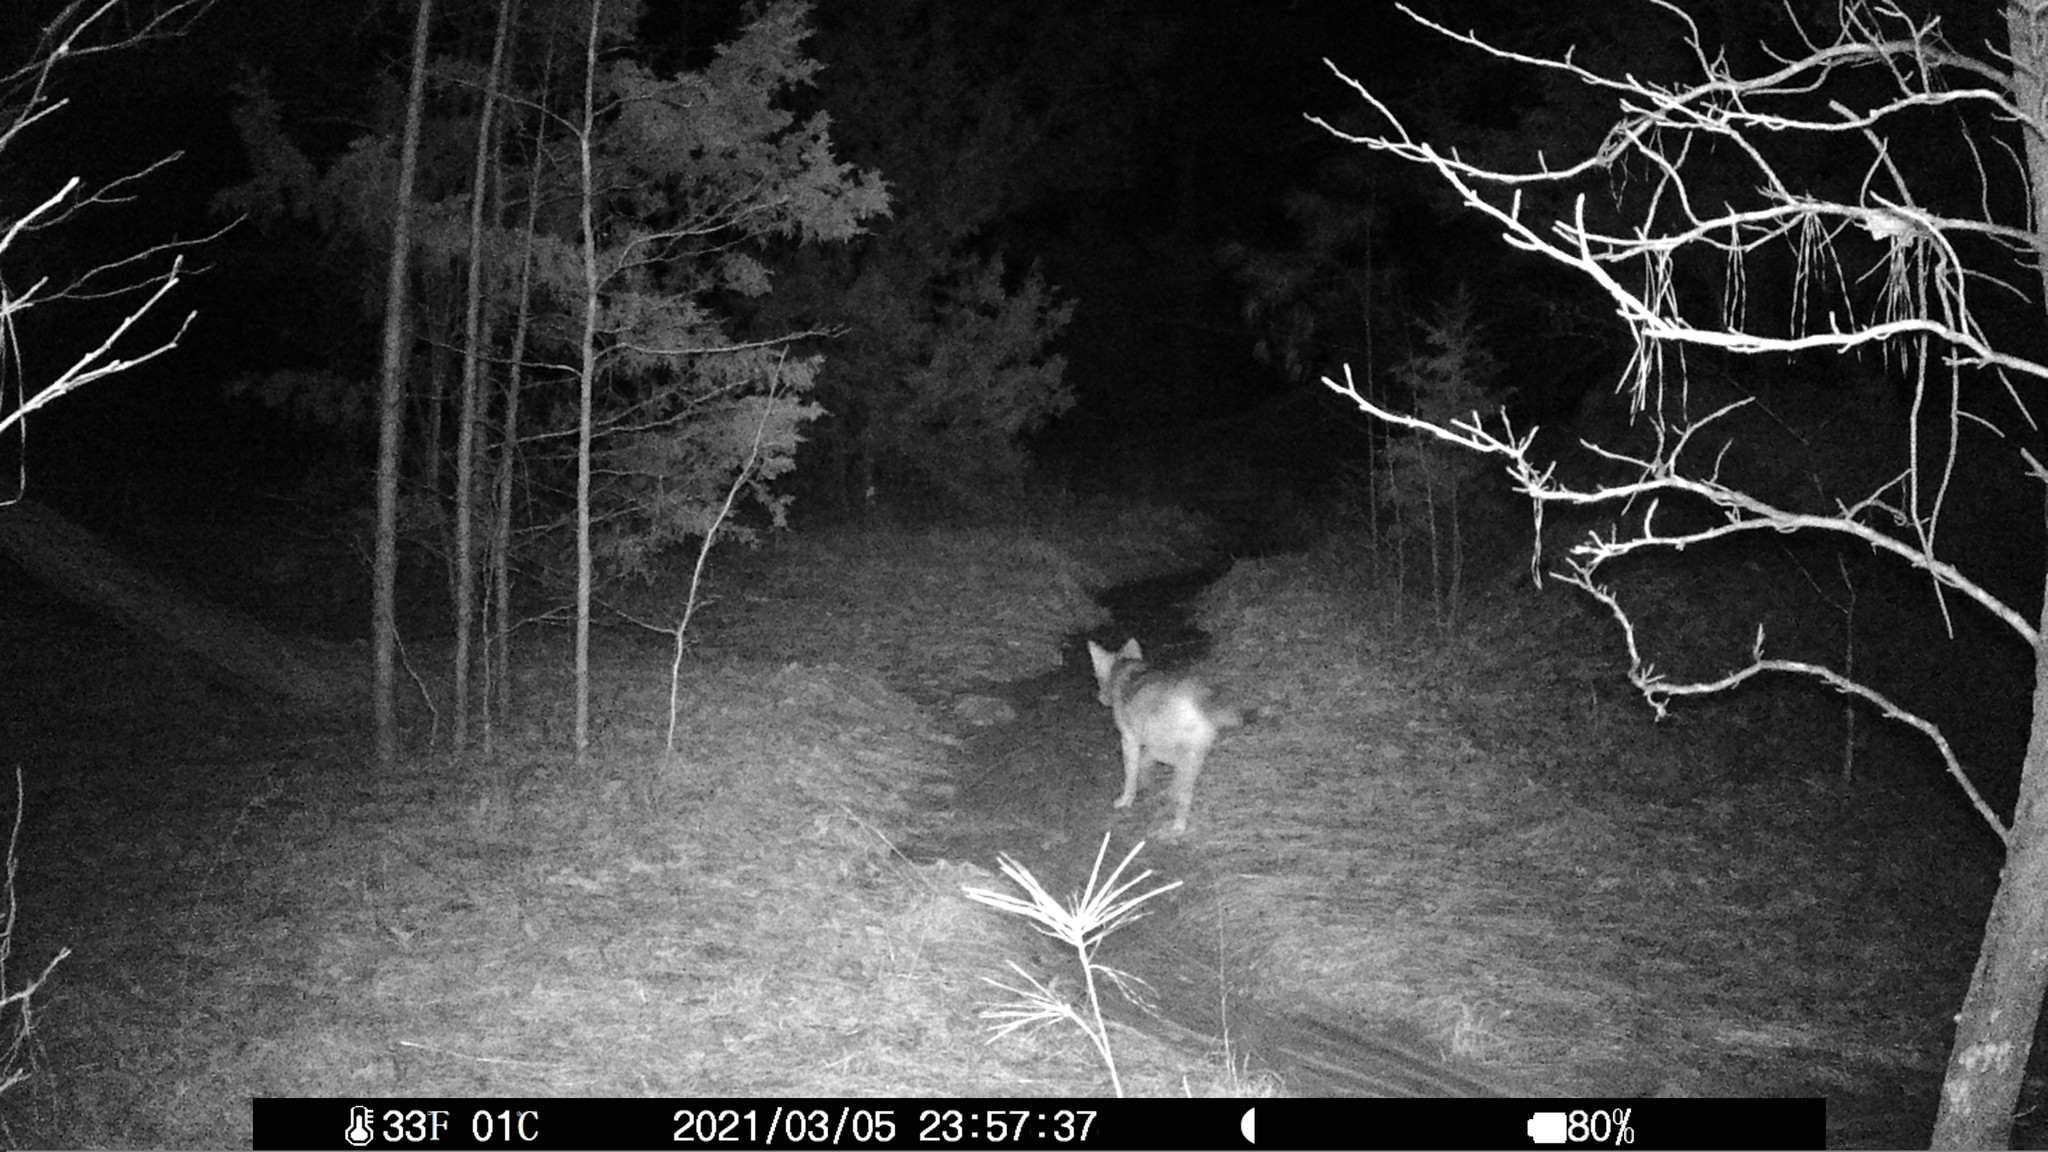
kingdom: Animalia
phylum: Chordata
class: Mammalia
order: Carnivora
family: Canidae
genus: Canis
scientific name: Canis latrans
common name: Coyote
